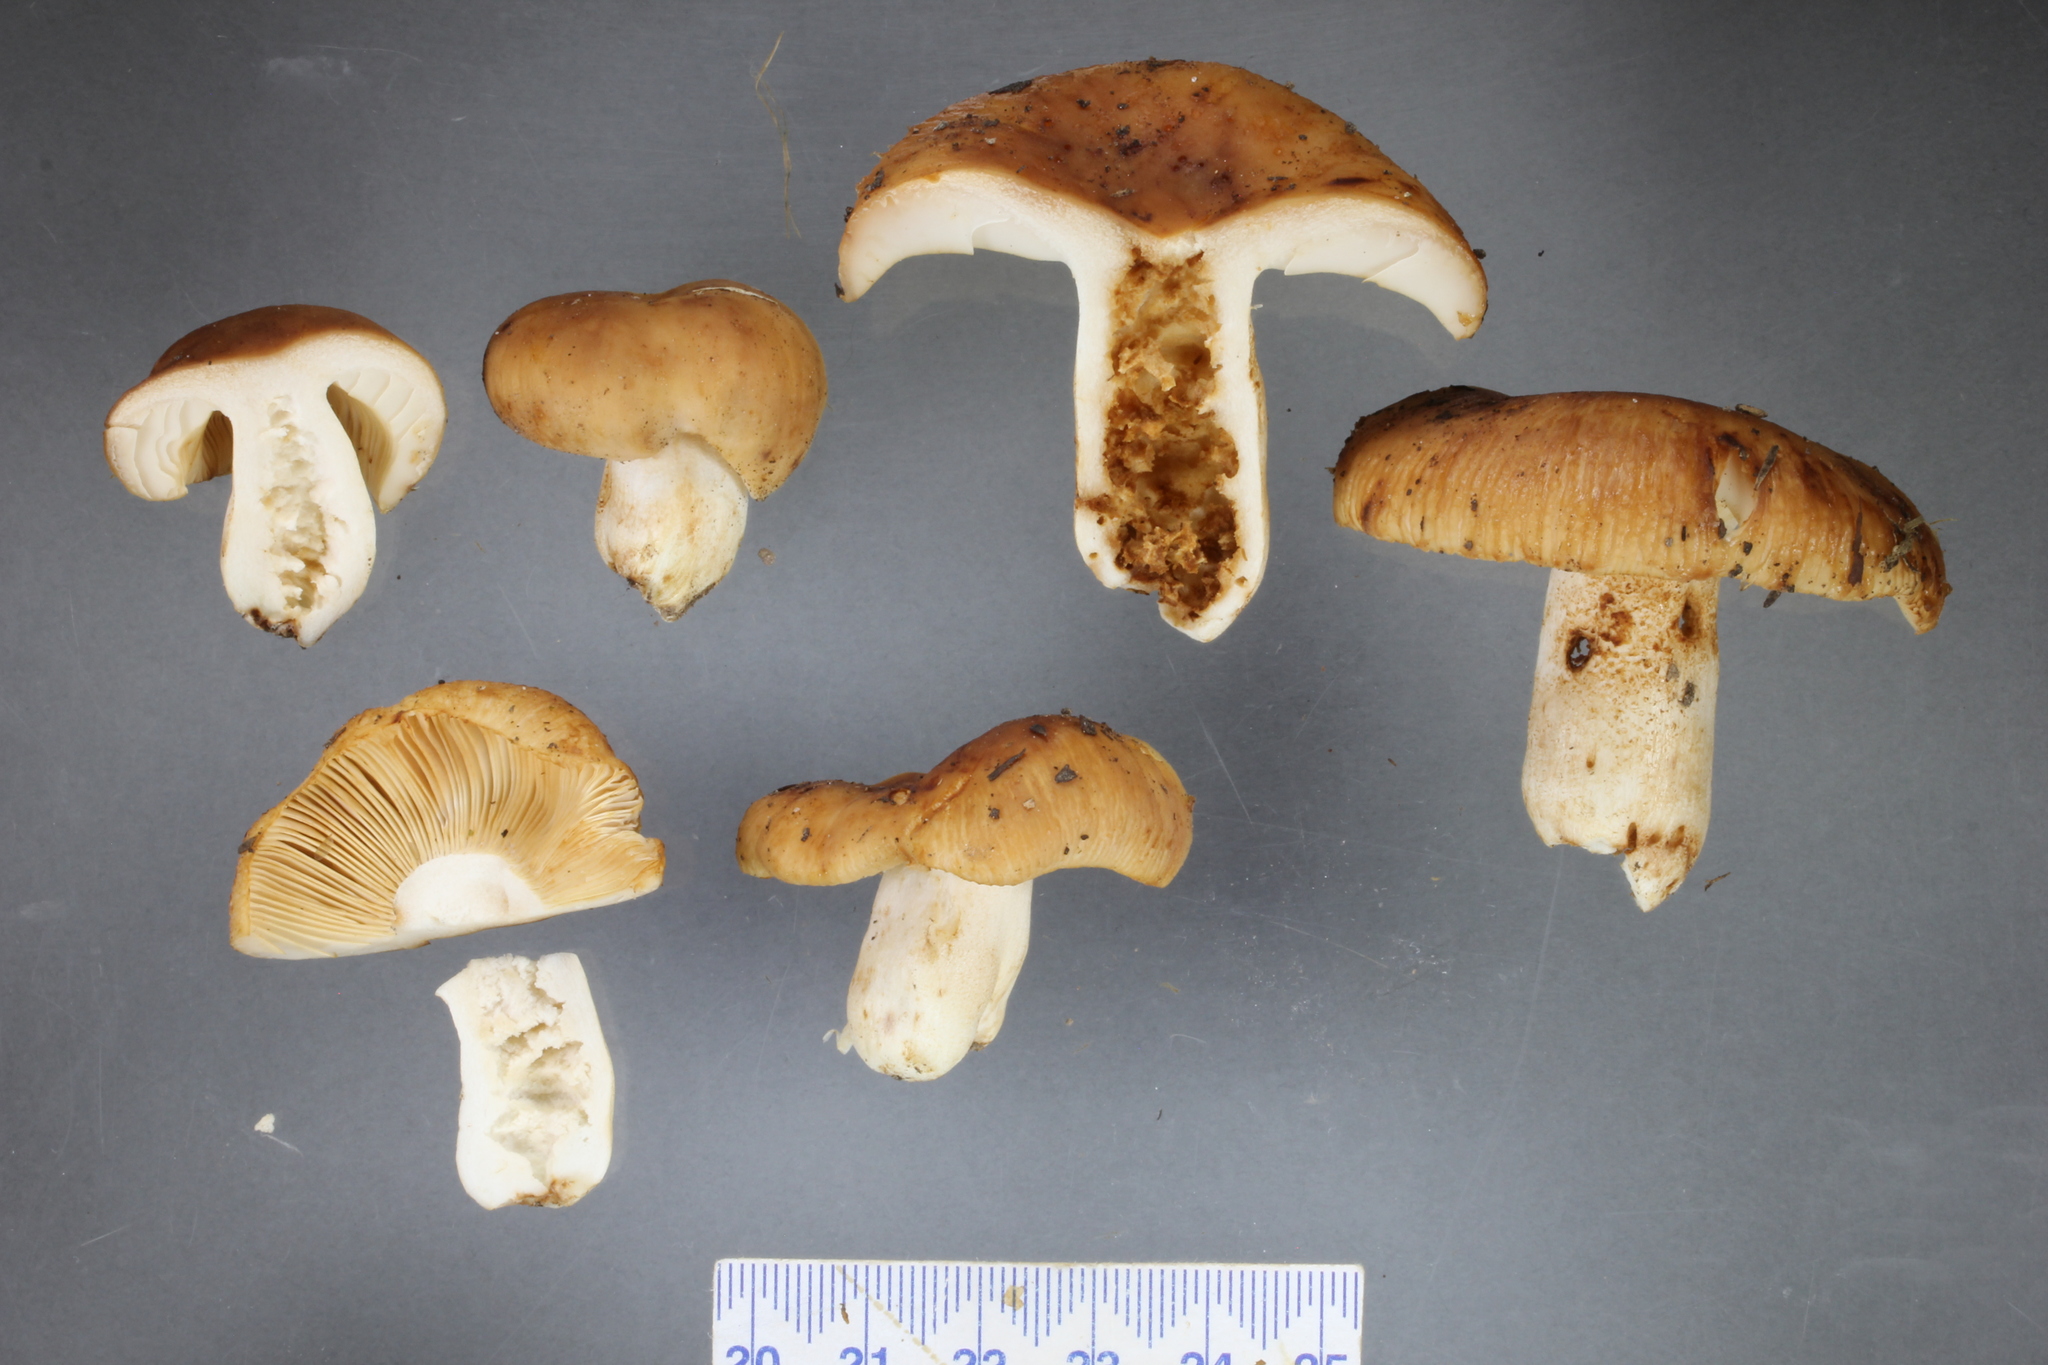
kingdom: Fungi
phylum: Basidiomycota
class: Agaricomycetes
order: Russulales
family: Russulaceae
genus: Russula
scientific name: Russula novae-zelandiae
